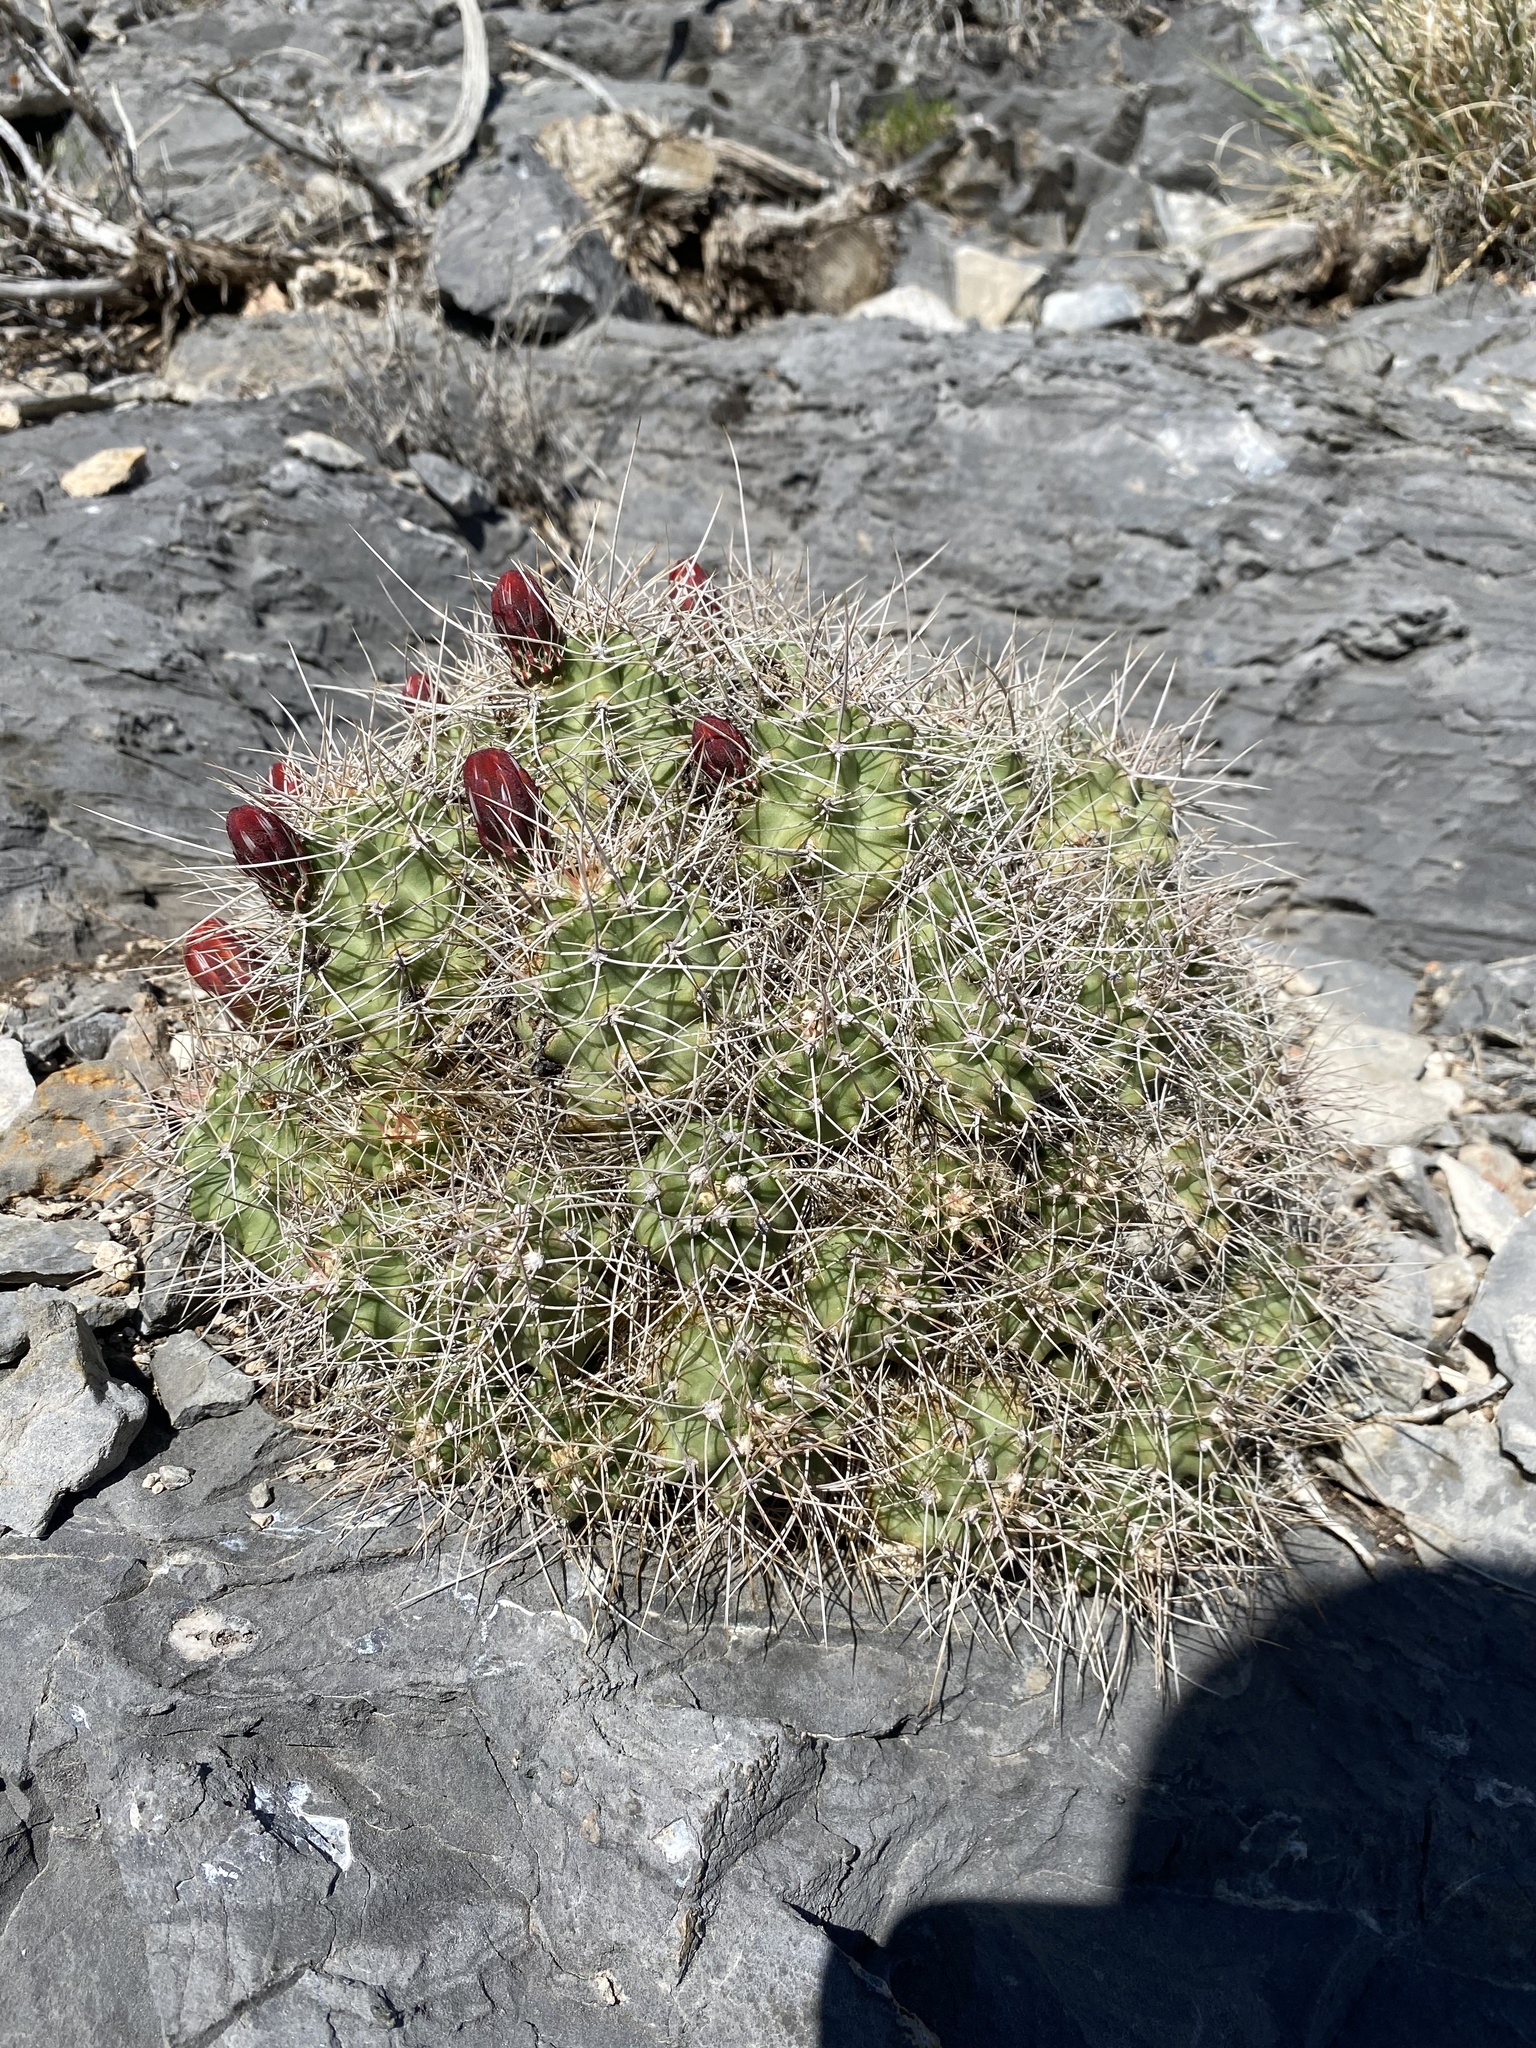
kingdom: Plantae
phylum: Tracheophyta
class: Magnoliopsida
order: Caryophyllales
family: Cactaceae
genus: Echinocereus
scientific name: Echinocereus triglochidiatus
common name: Claretcup hedgehog
